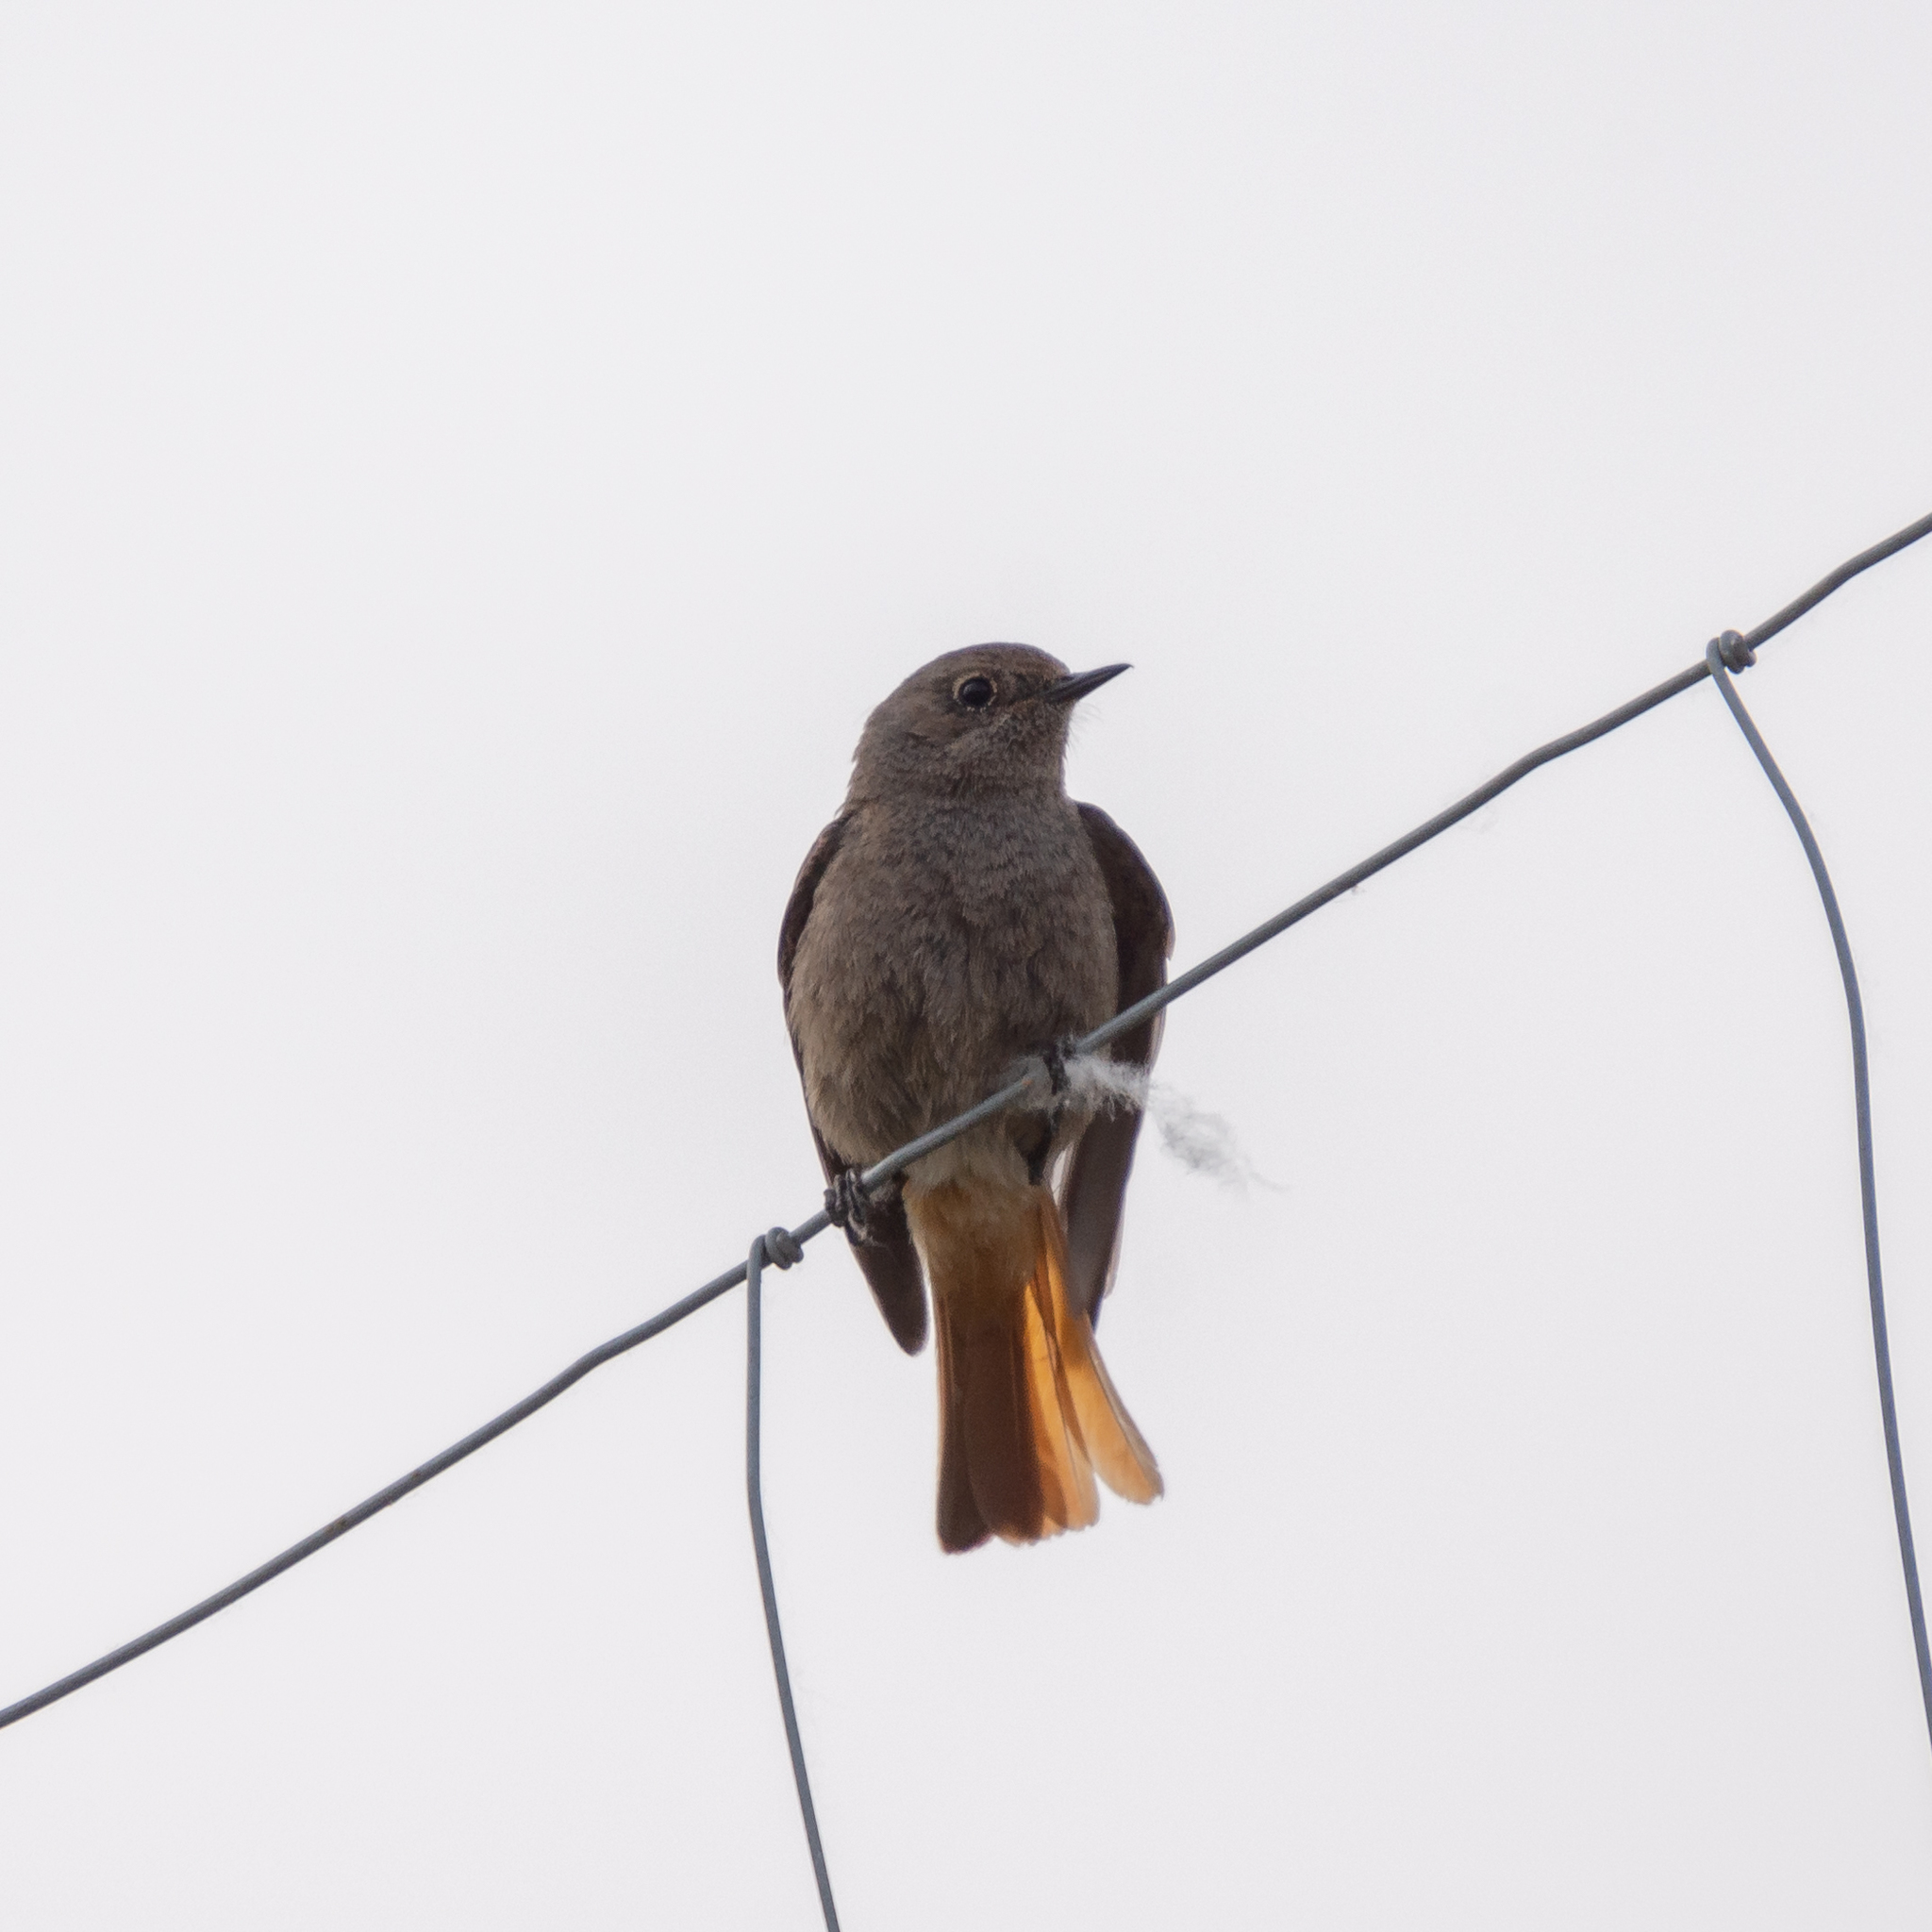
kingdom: Animalia
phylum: Chordata
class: Aves
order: Passeriformes
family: Muscicapidae
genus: Phoenicurus
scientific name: Phoenicurus ochruros
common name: Black redstart
